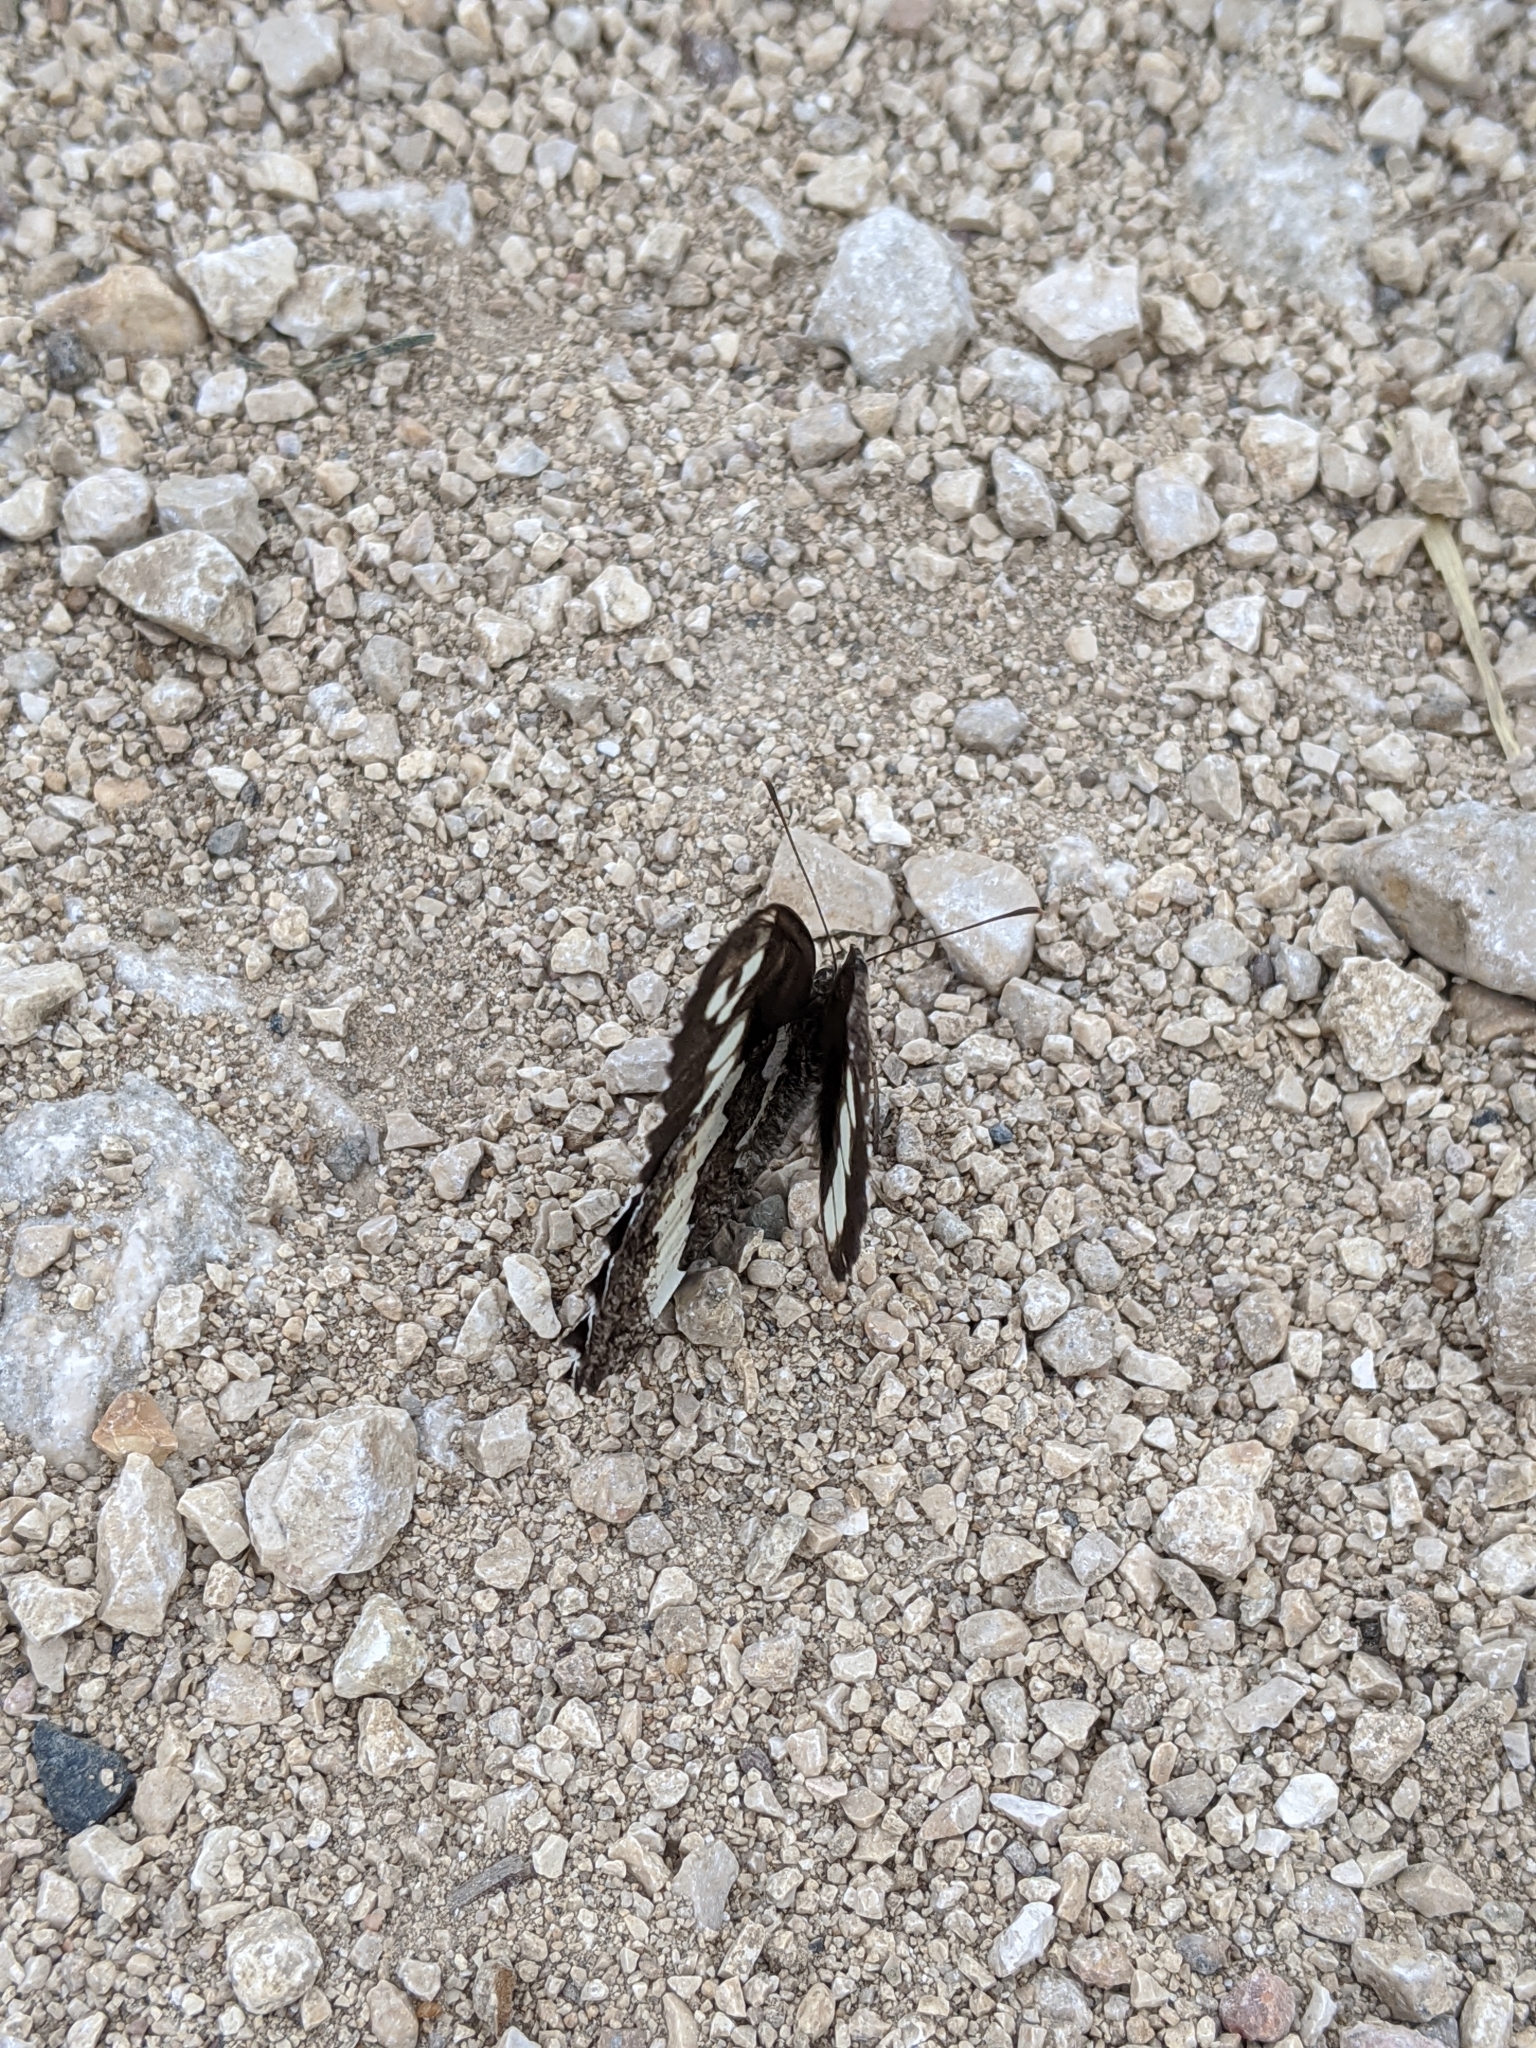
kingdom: Animalia
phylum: Arthropoda
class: Insecta
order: Lepidoptera
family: Lycaenidae
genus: Loweia
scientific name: Loweia tityrus
